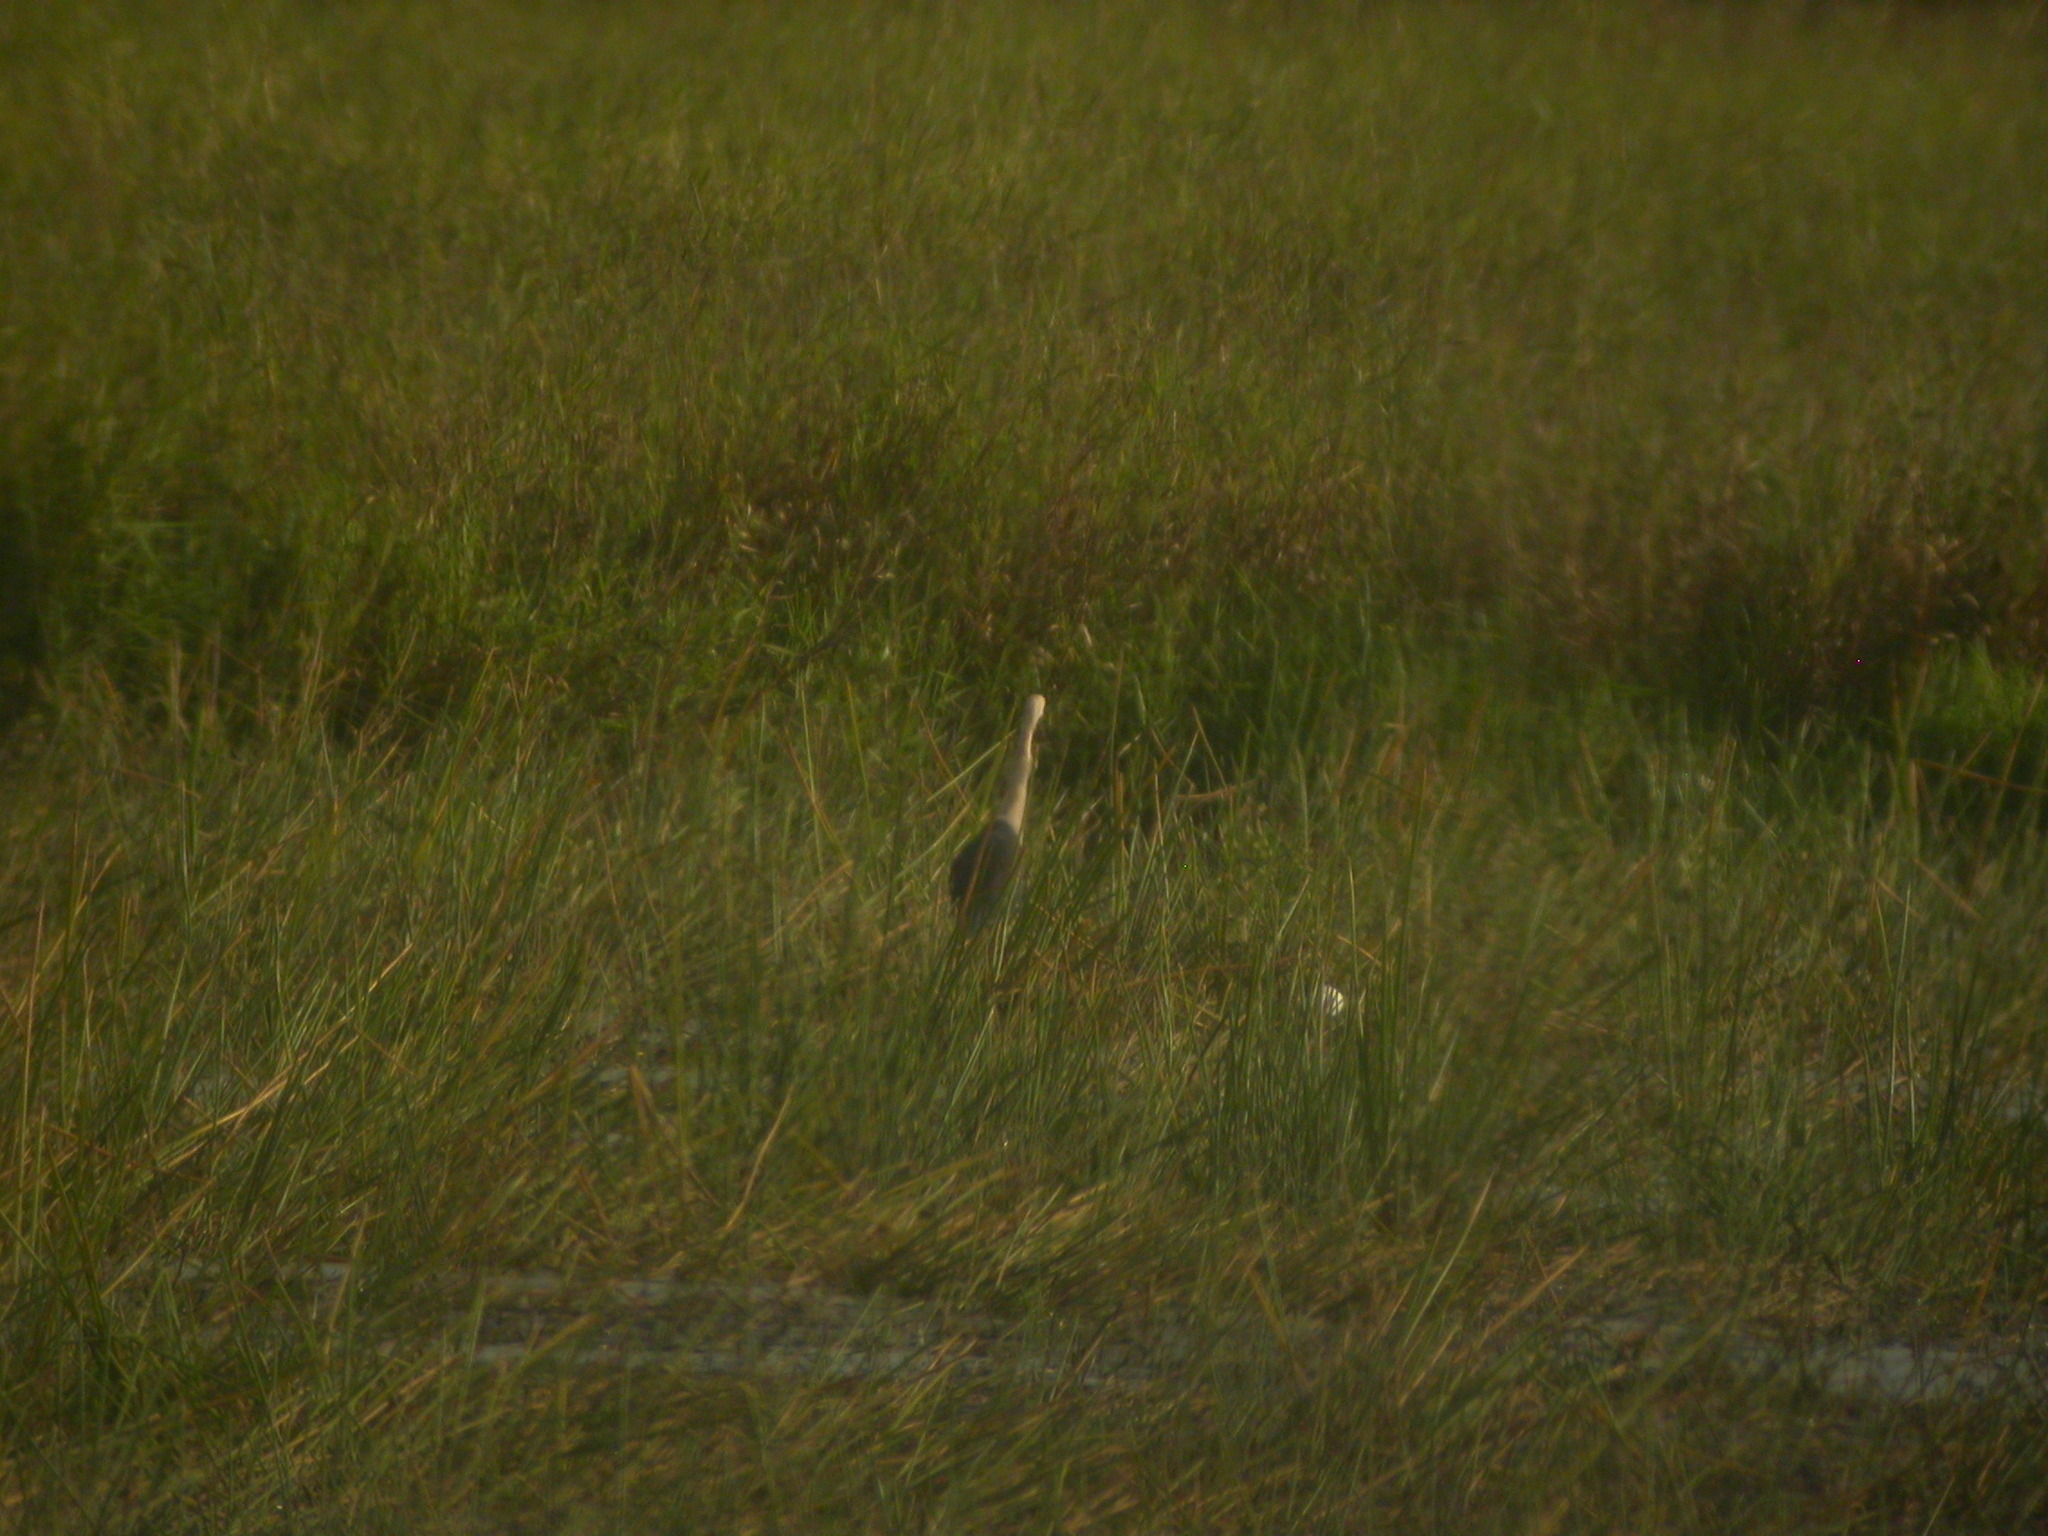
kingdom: Animalia
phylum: Chordata
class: Aves
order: Pelecaniformes
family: Ardeidae
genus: Ardea
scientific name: Ardea pacifica
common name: White-necked heron
